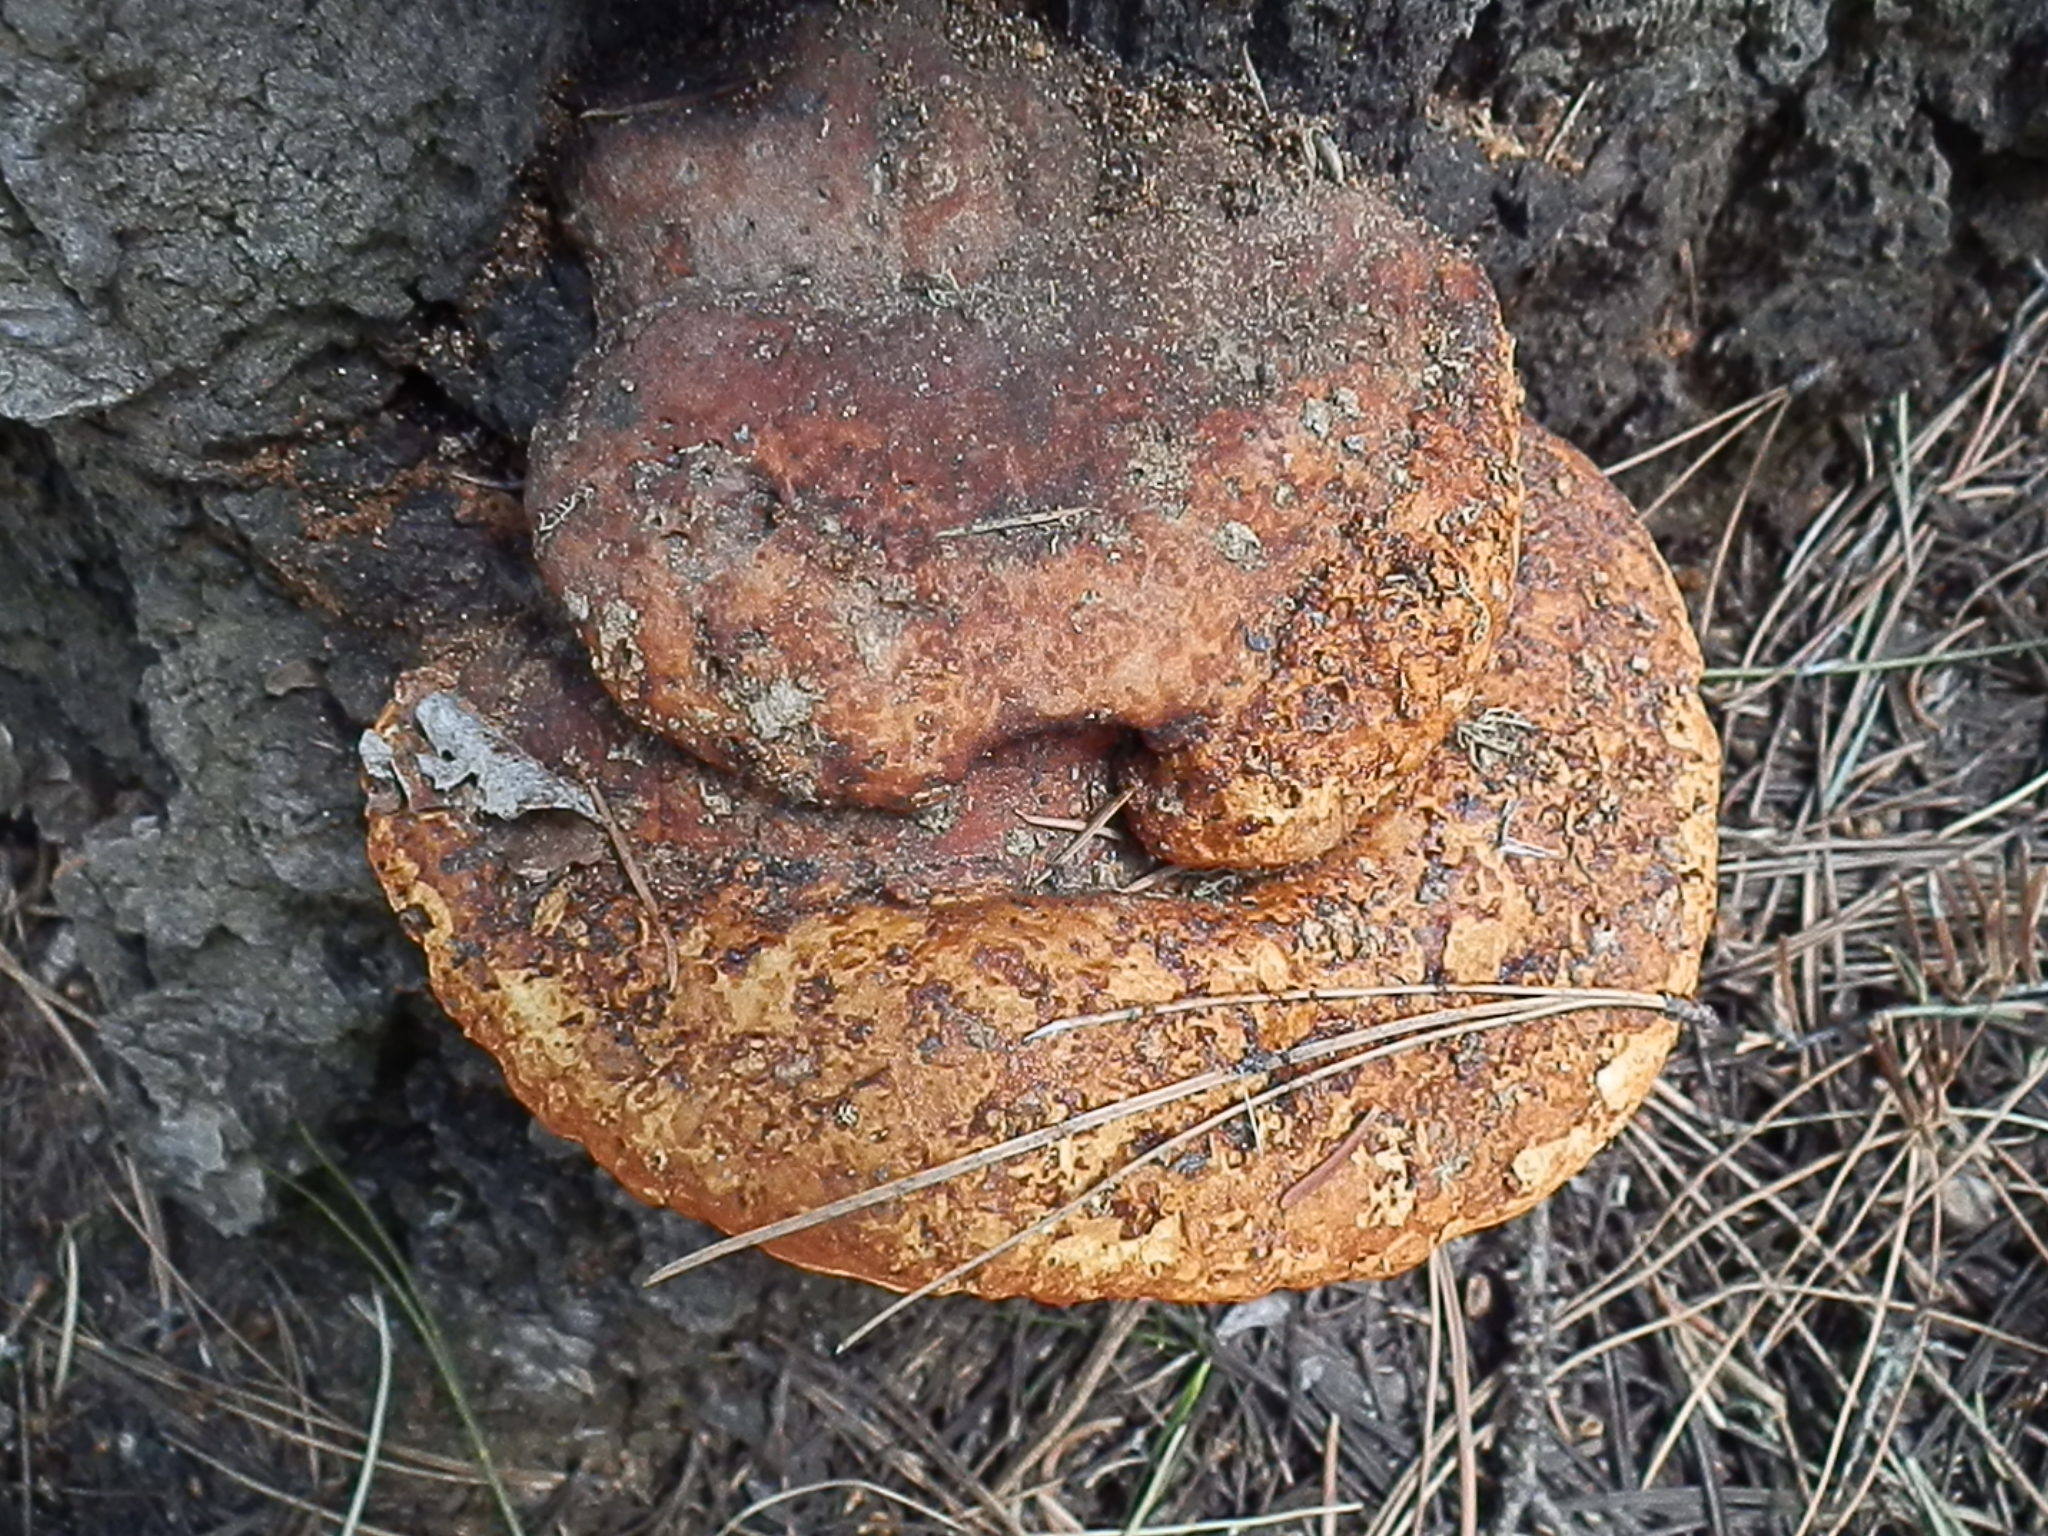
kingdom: Fungi
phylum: Basidiomycota
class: Agaricomycetes
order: Polyporales
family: Fomitopsidaceae
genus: Fomitopsis
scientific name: Fomitopsis schrenkii
